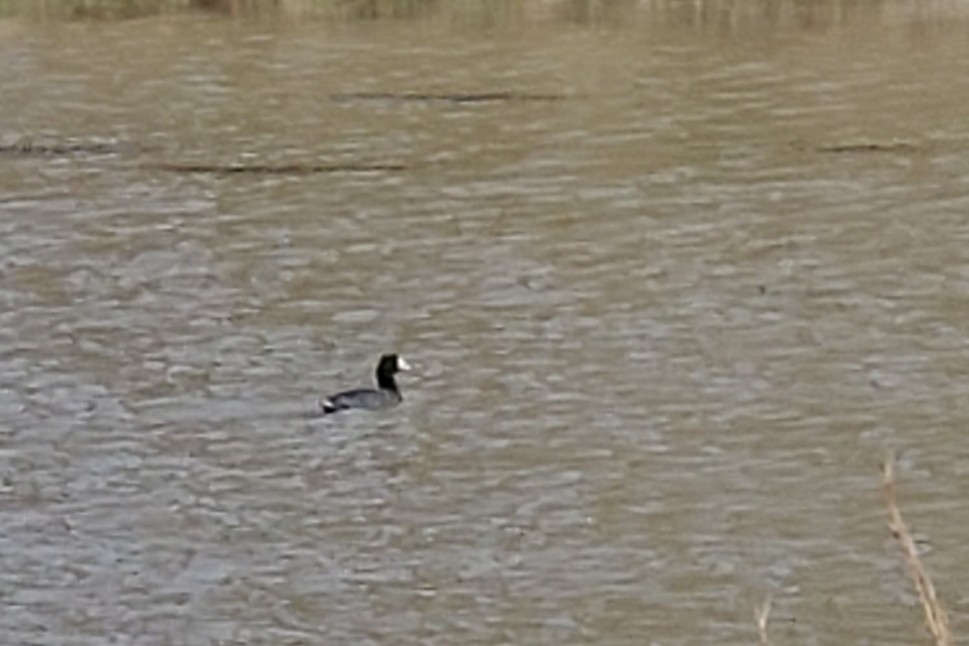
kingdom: Animalia
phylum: Chordata
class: Aves
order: Gruiformes
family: Rallidae
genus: Fulica
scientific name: Fulica americana
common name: American coot
